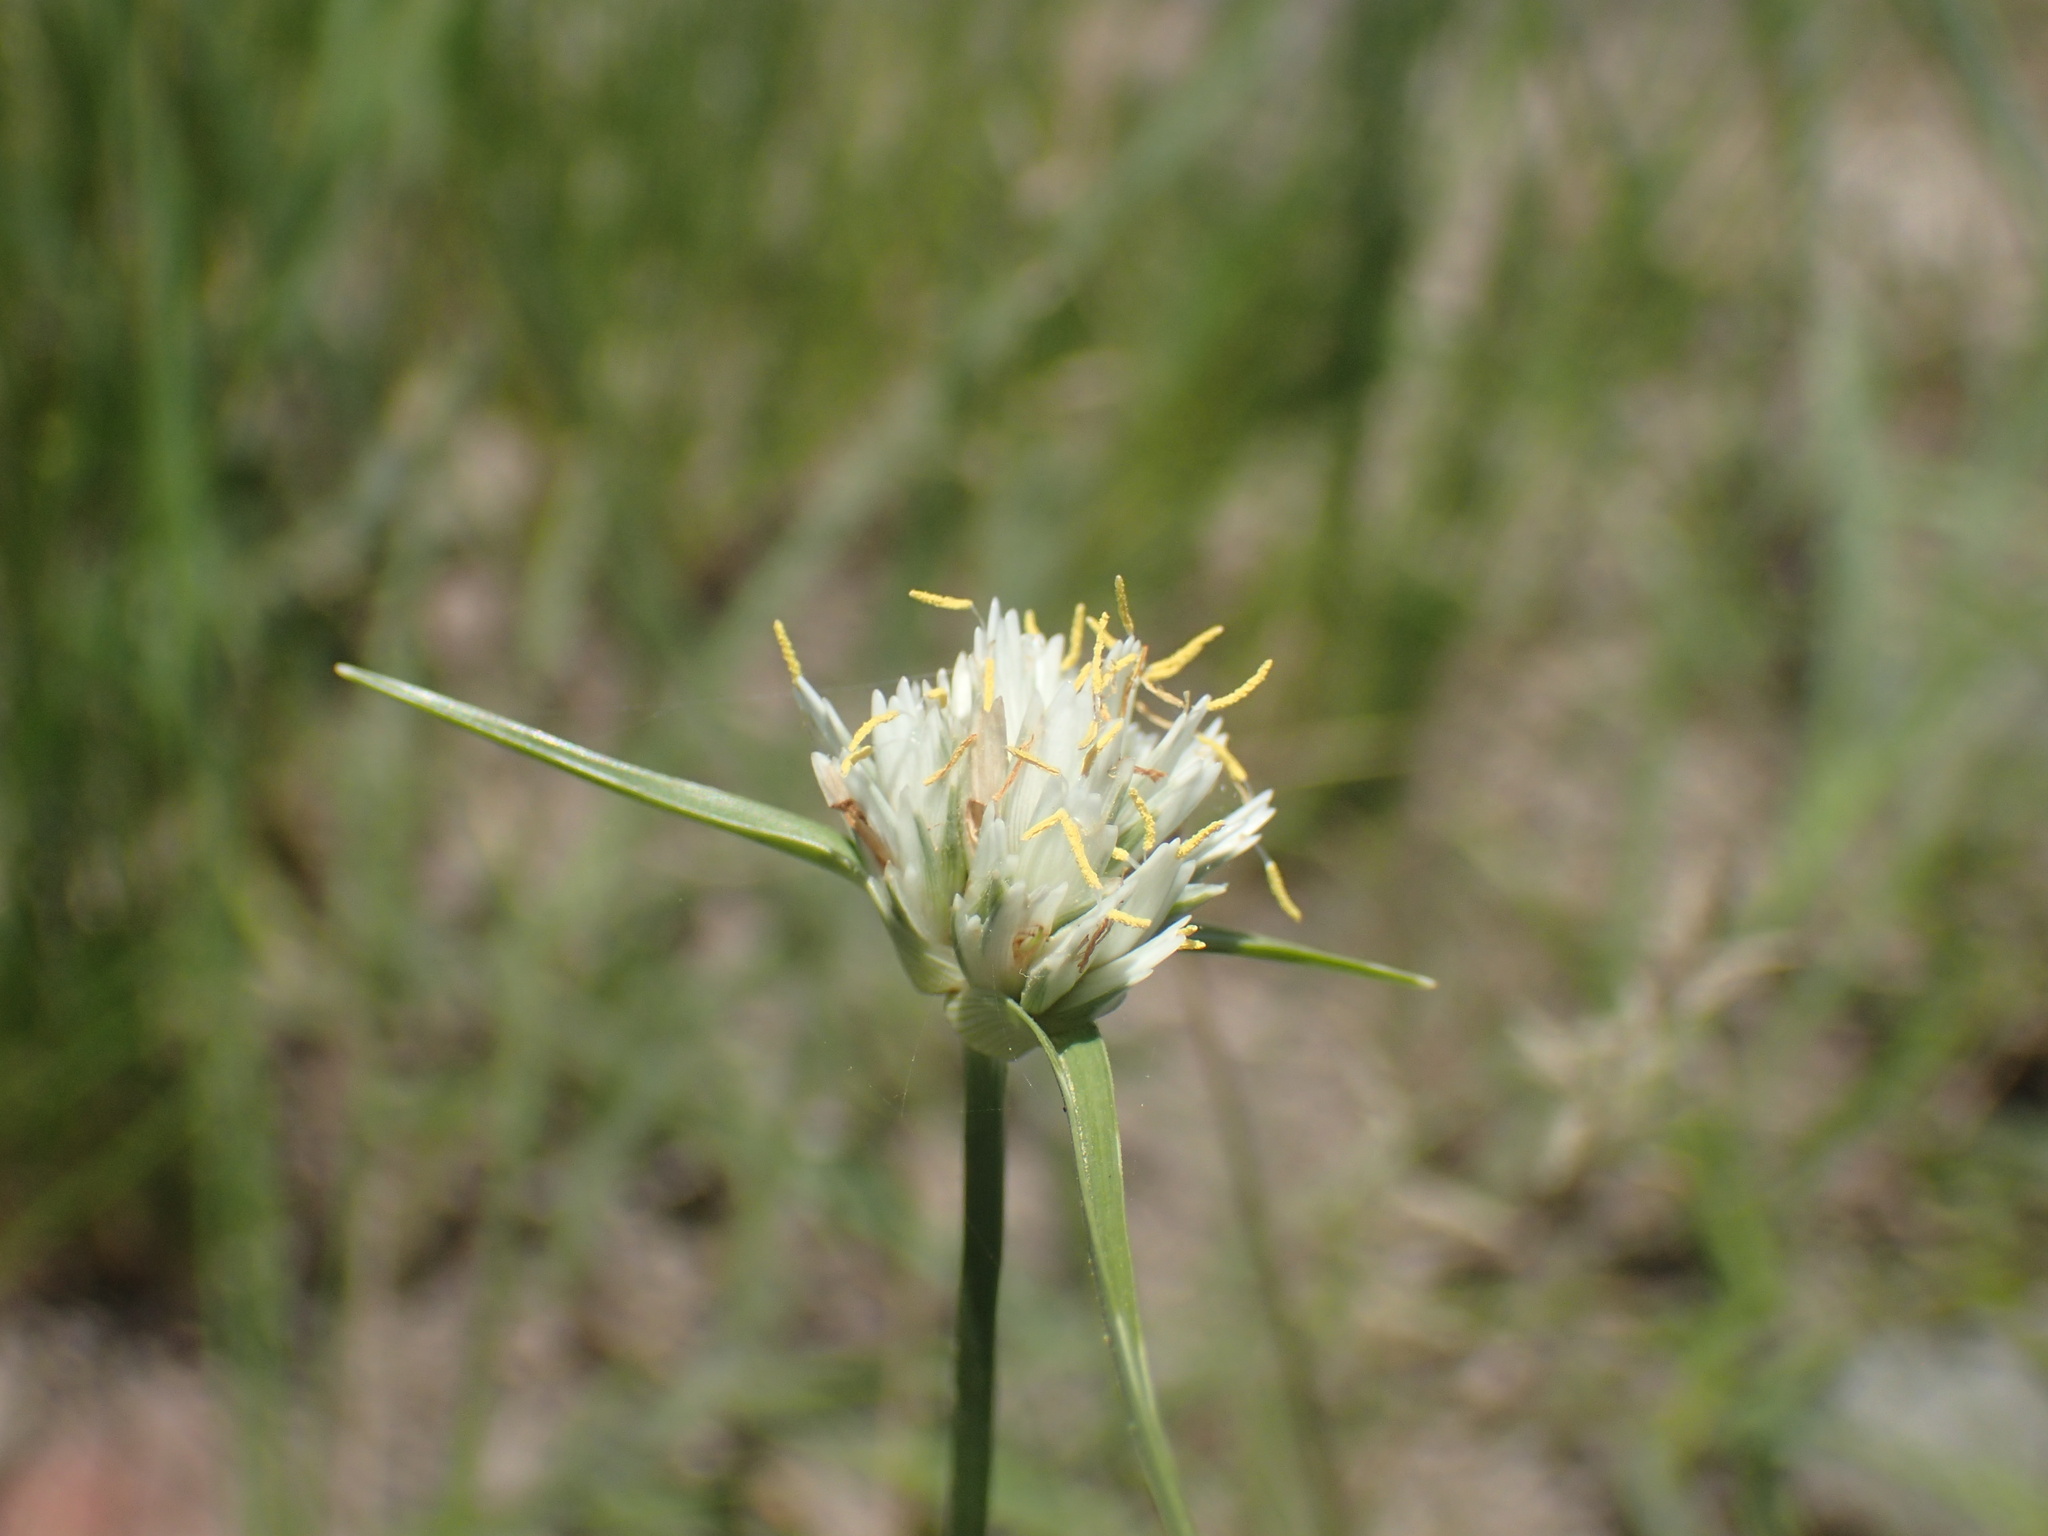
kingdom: Plantae
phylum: Tracheophyta
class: Liliopsida
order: Poales
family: Cyperaceae
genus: Cyperus
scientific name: Cyperus niveus
